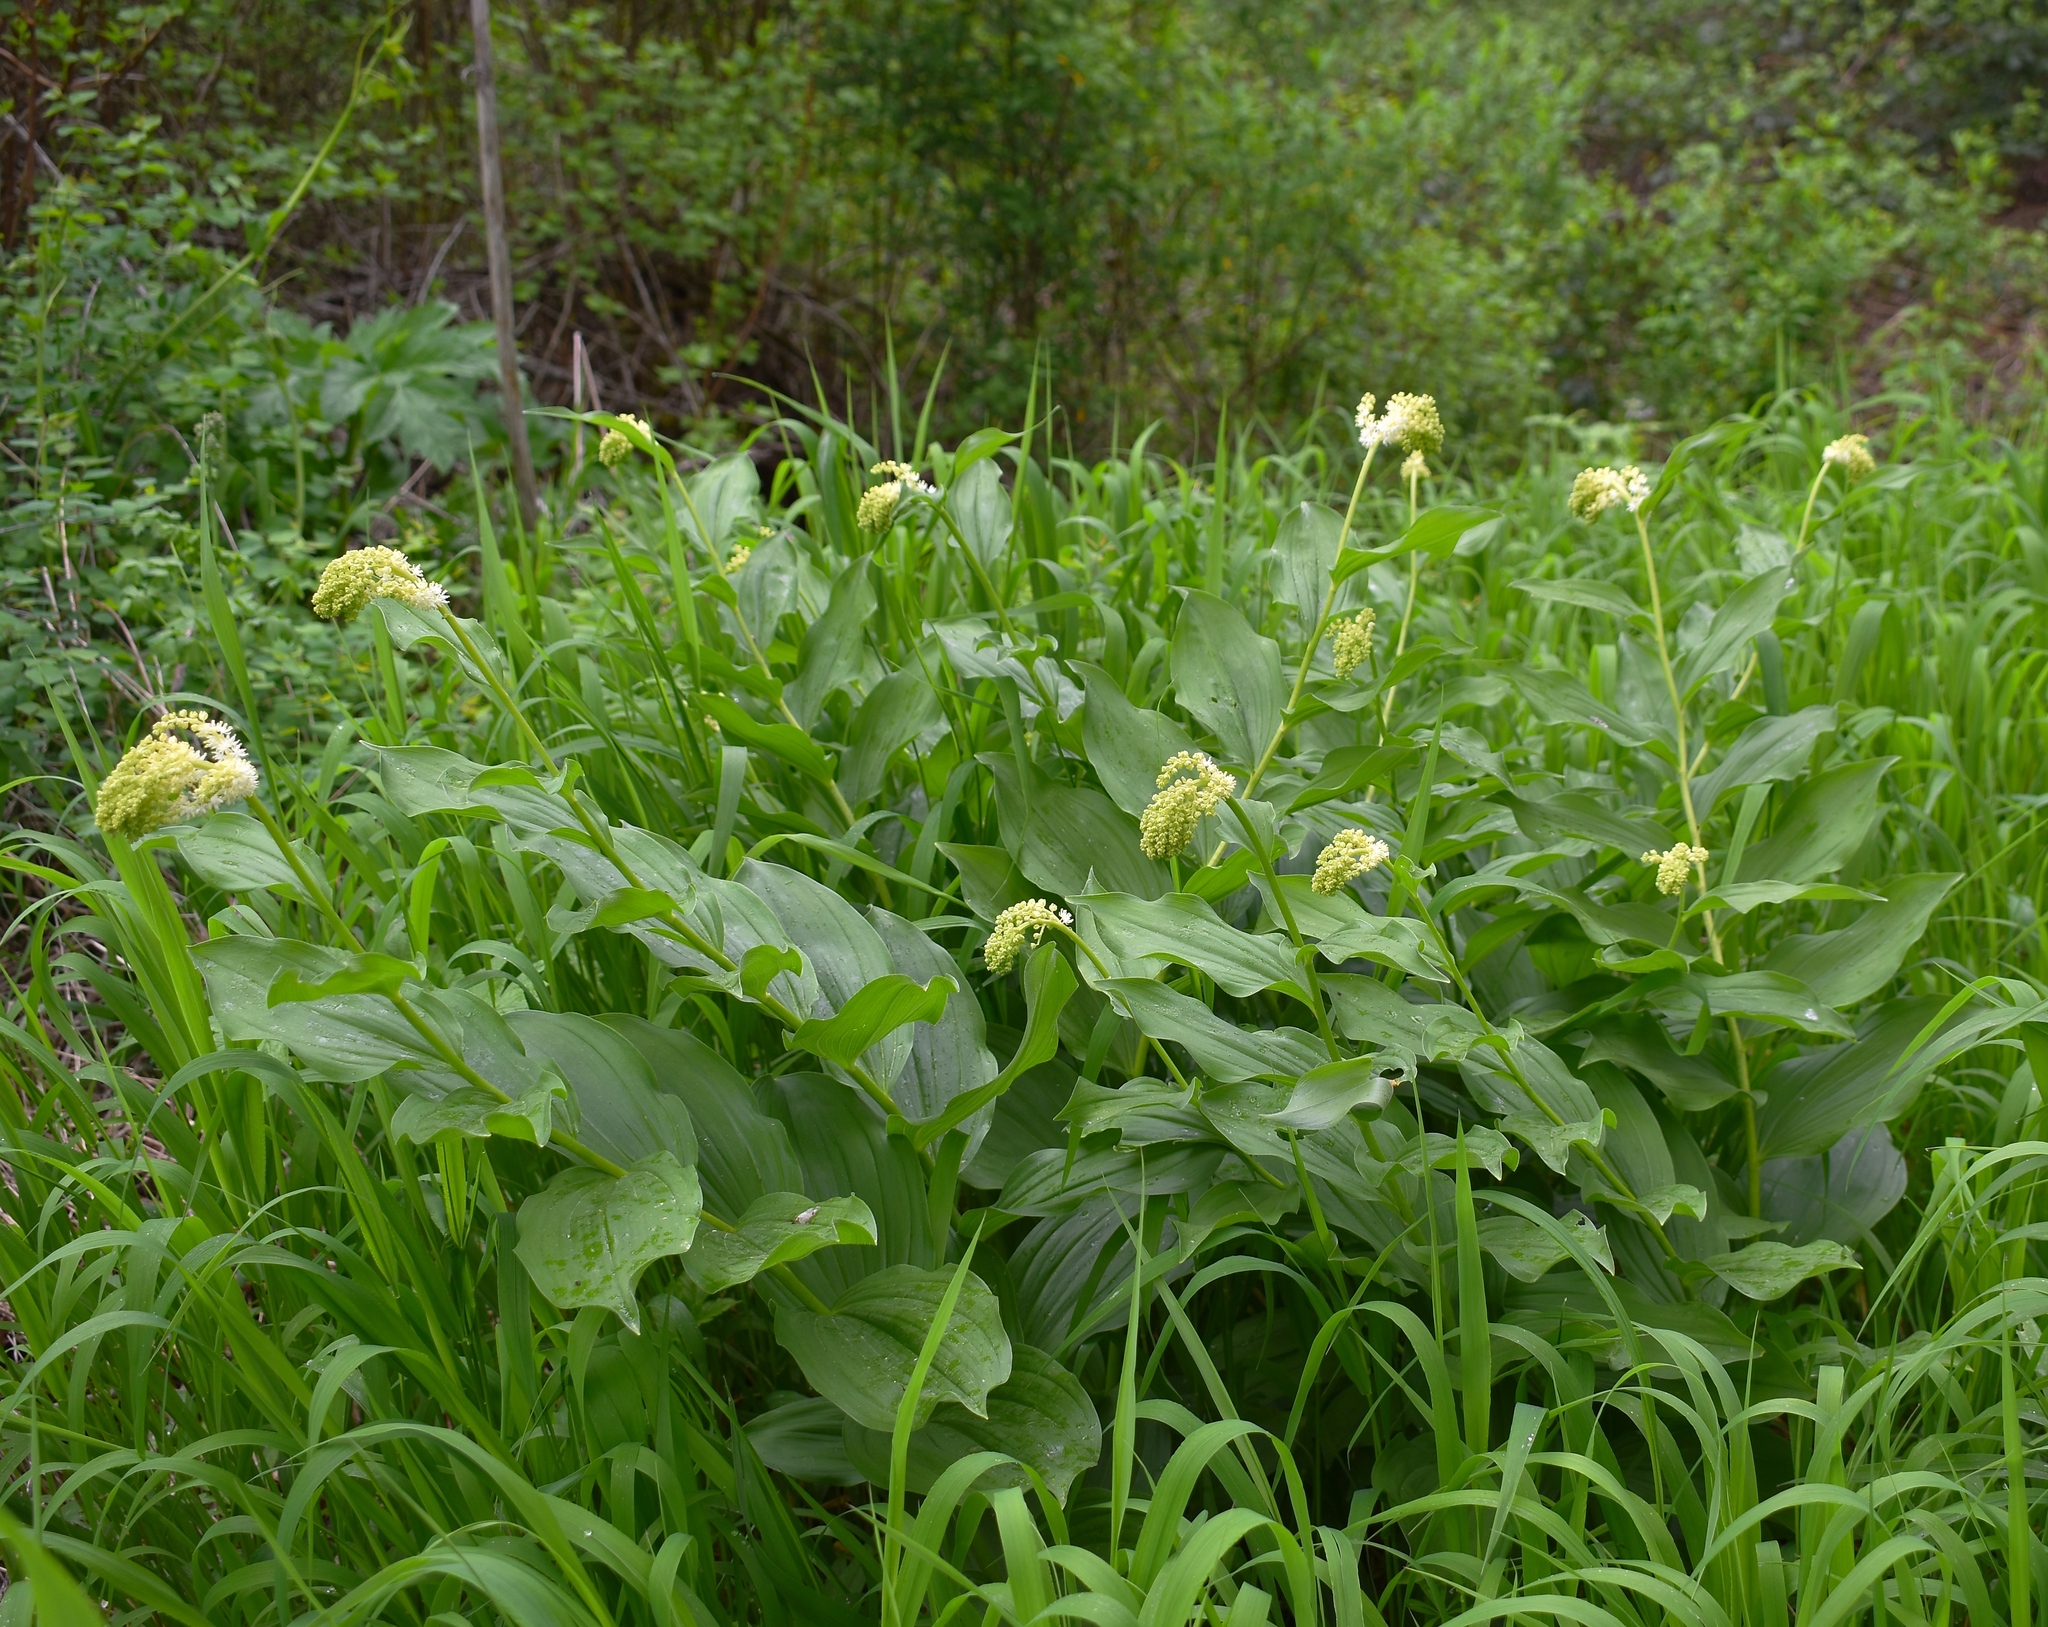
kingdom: Plantae
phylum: Tracheophyta
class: Liliopsida
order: Asparagales
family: Asparagaceae
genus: Maianthemum
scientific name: Maianthemum racemosum
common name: False spikenard
